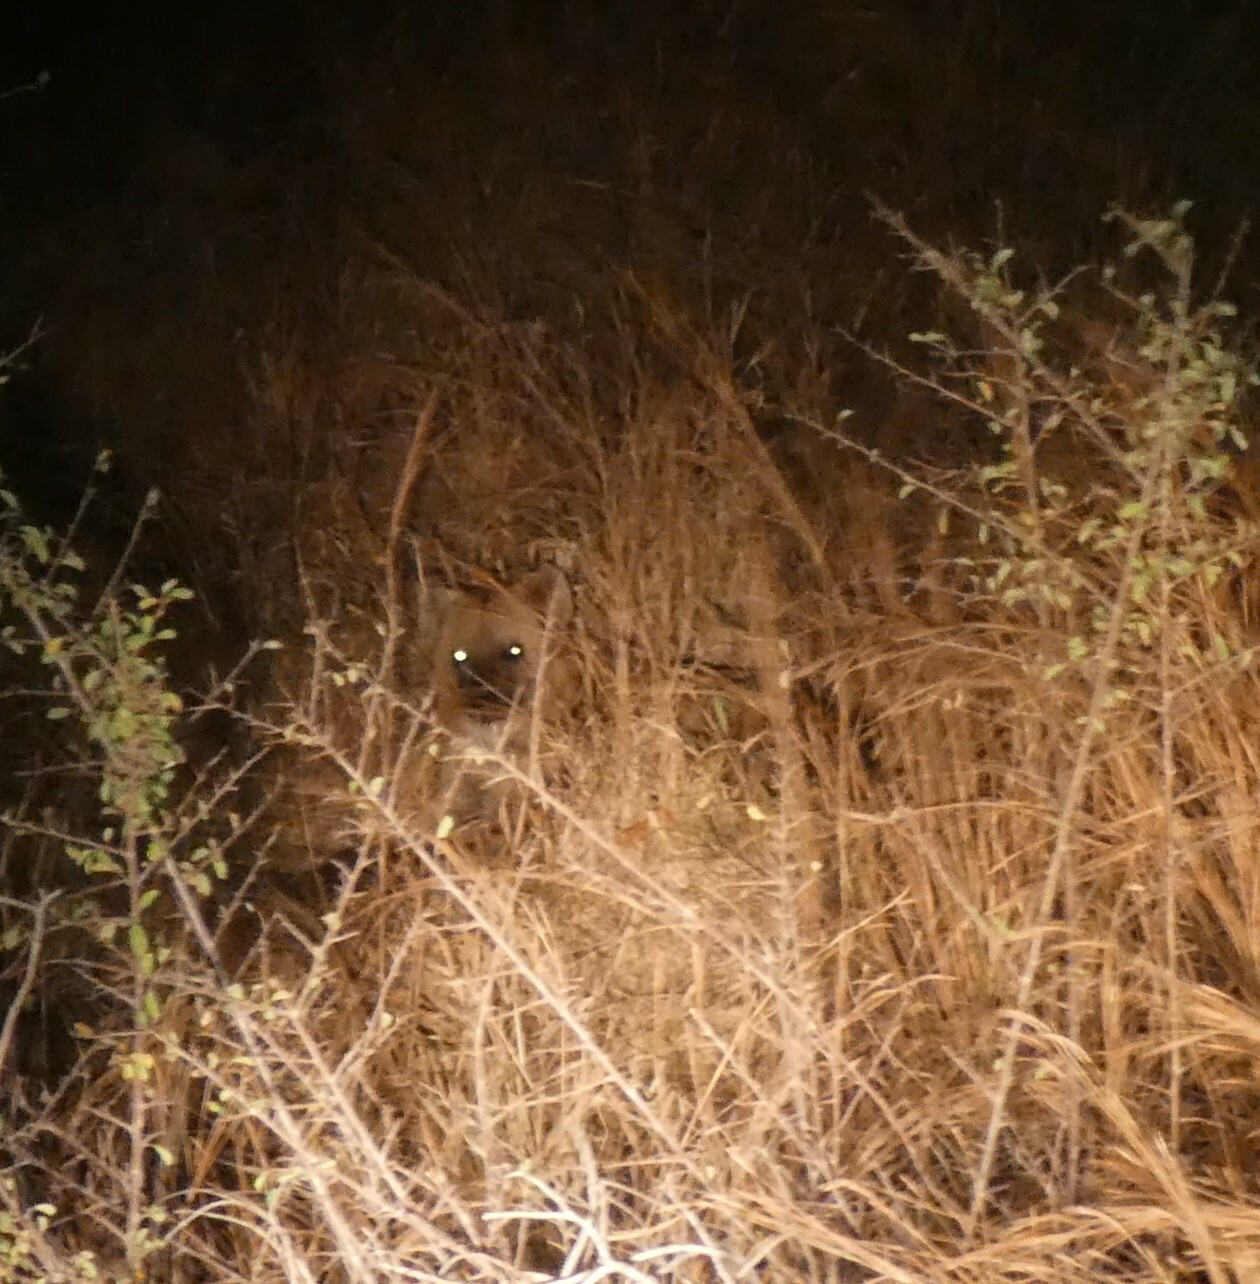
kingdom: Animalia
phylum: Chordata
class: Mammalia
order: Carnivora
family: Hyaenidae
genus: Crocuta
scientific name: Crocuta crocuta
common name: Spotted hyaena
